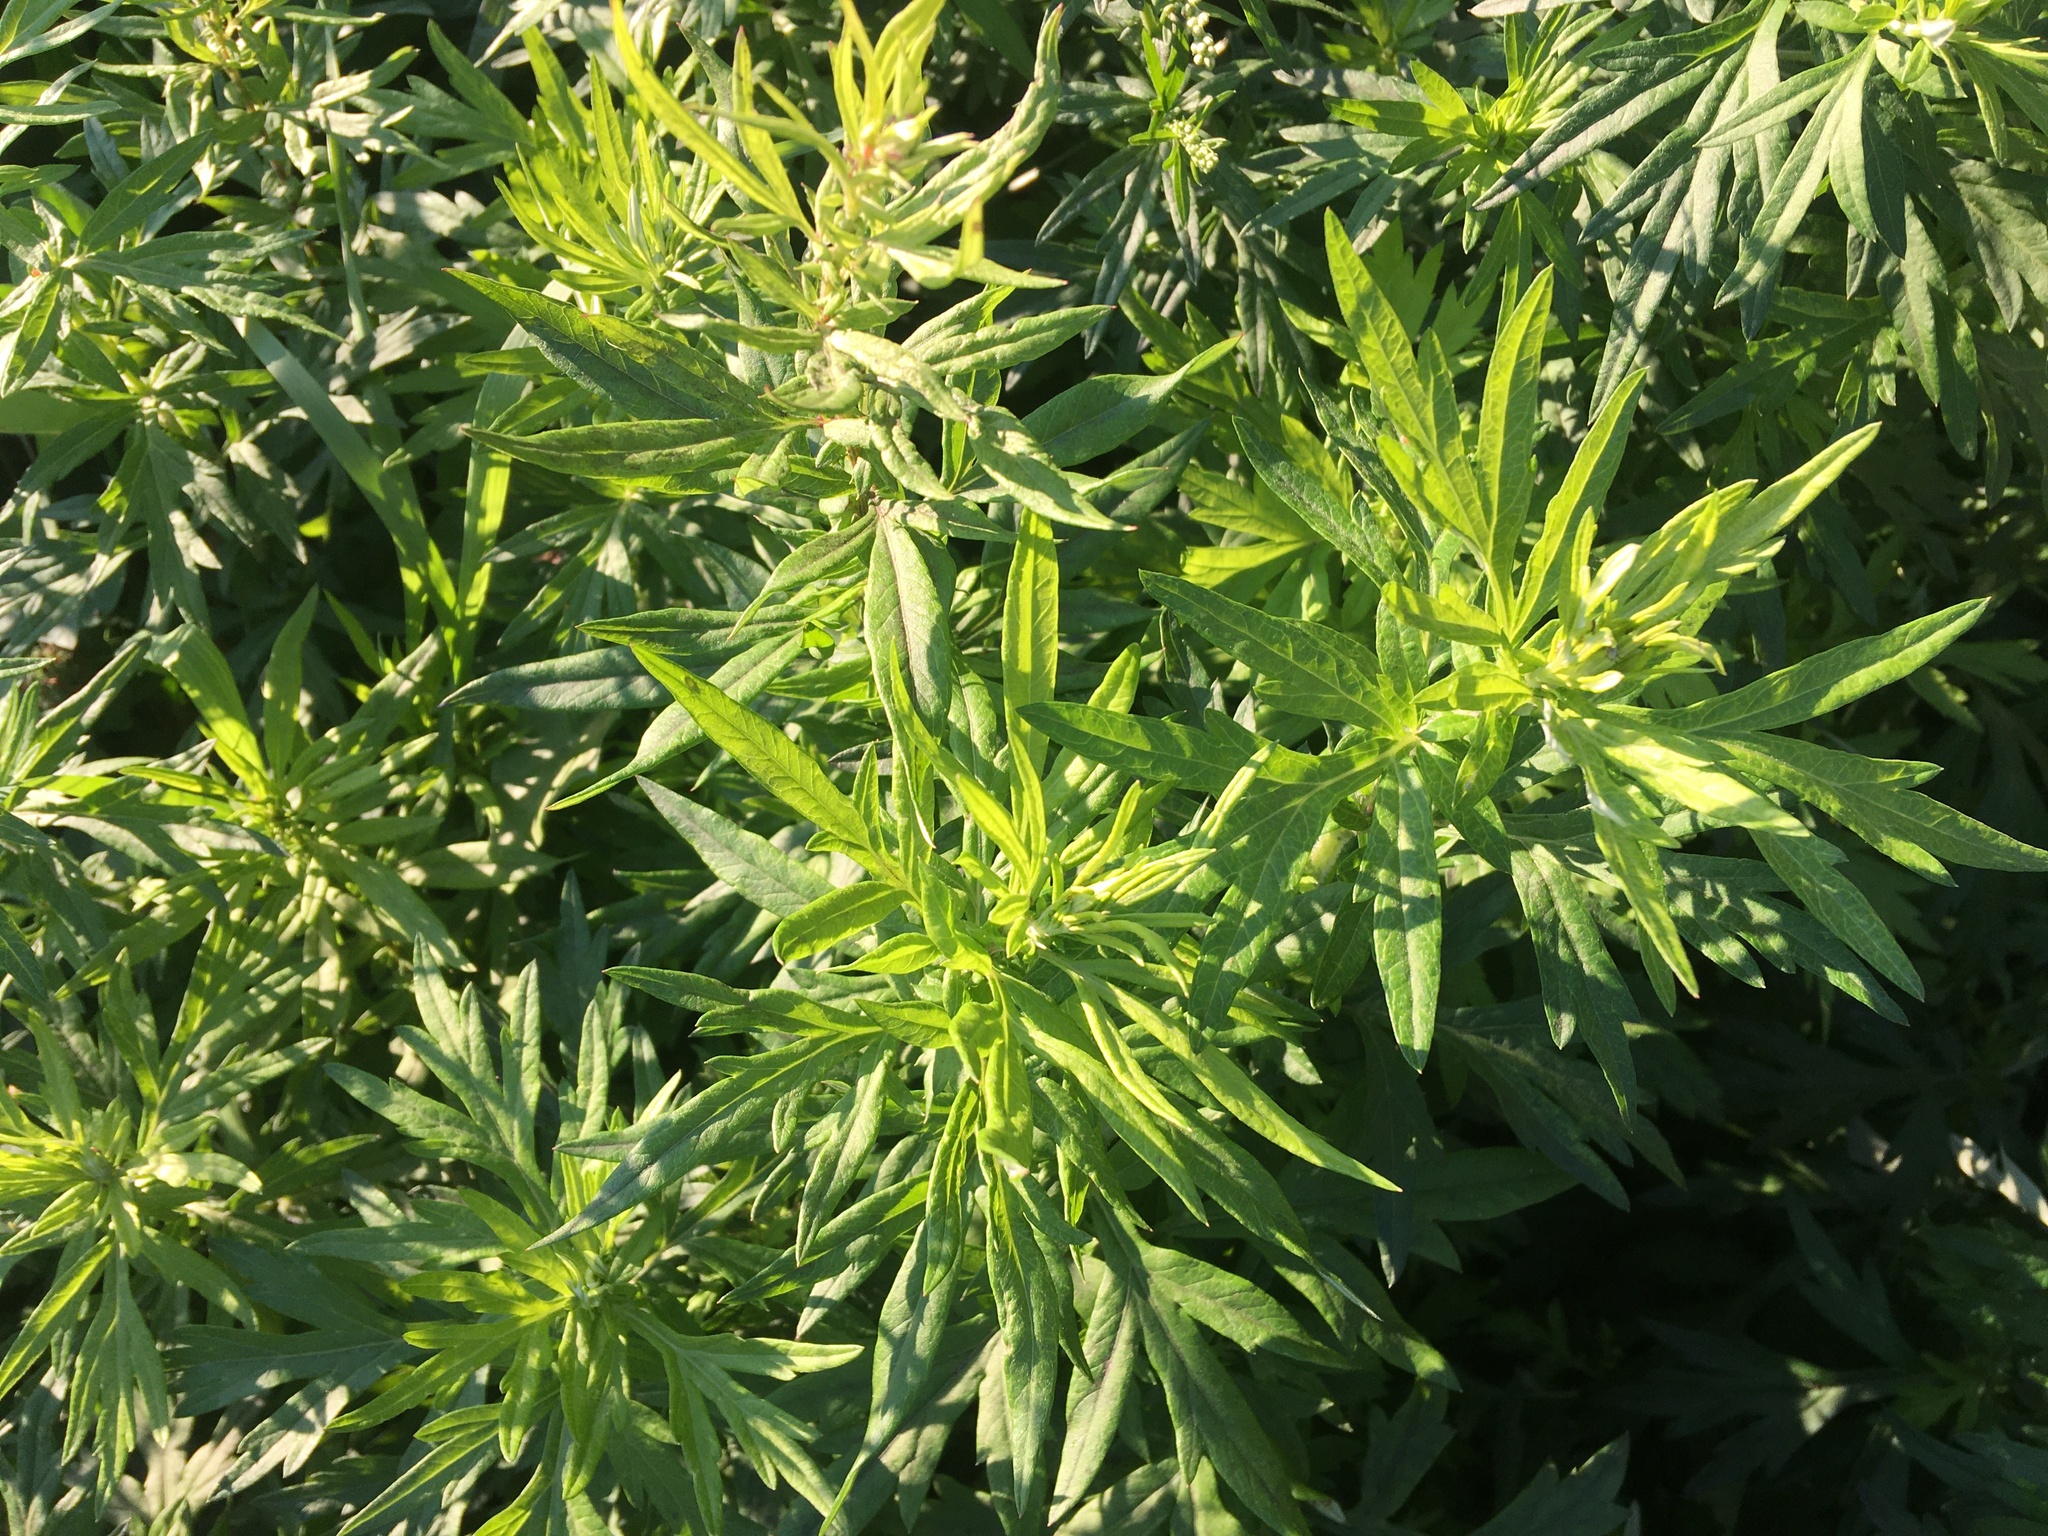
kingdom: Plantae
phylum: Tracheophyta
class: Magnoliopsida
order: Asterales
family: Asteraceae
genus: Artemisia
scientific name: Artemisia vulgaris
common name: Mugwort
